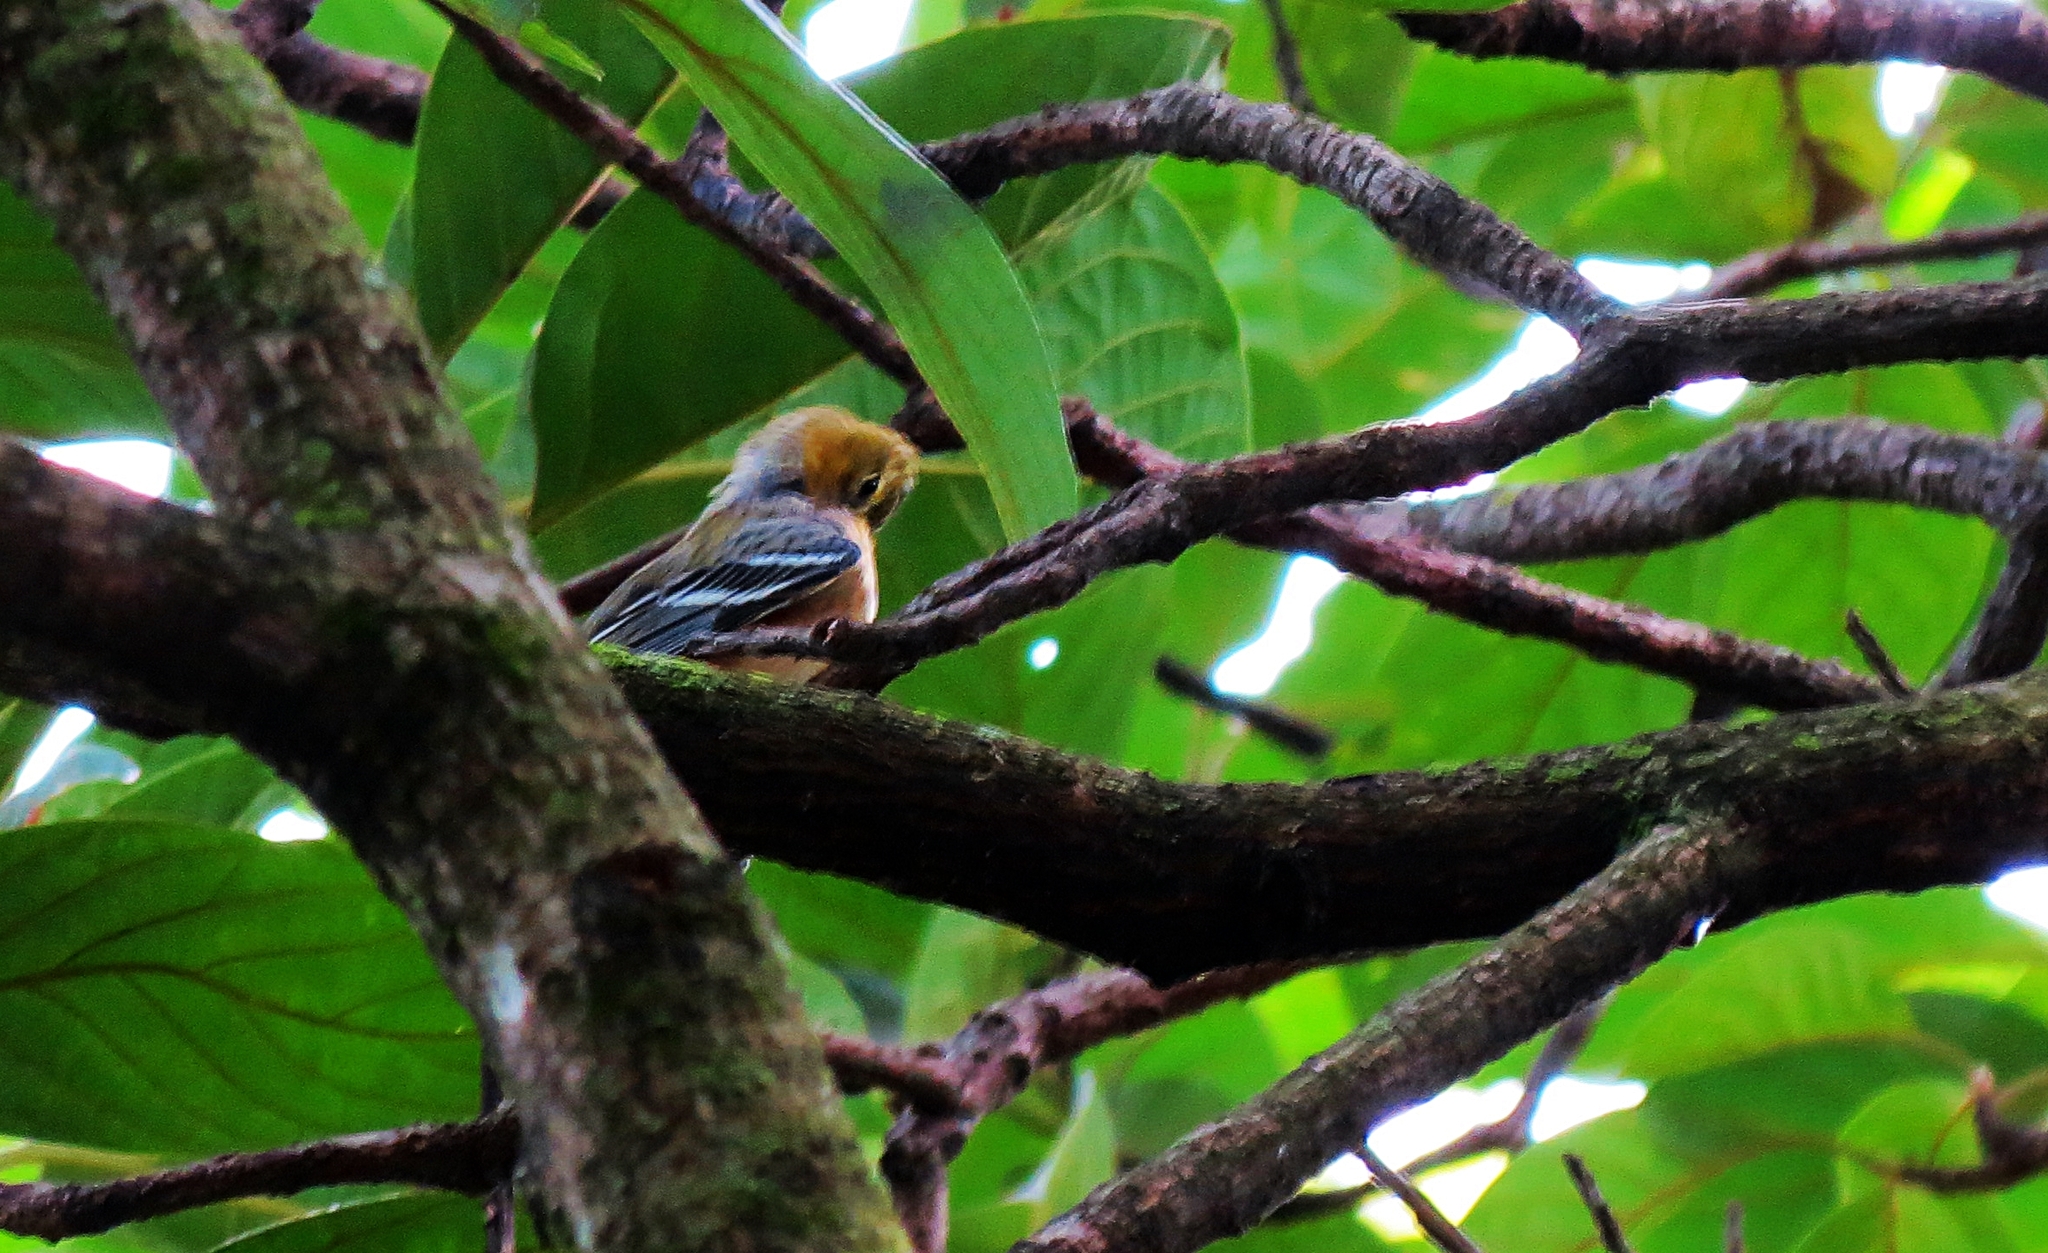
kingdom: Animalia
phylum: Chordata
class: Aves
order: Passeriformes
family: Parulidae
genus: Setophaga
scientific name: Setophaga castanea
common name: Bay-breasted warbler
